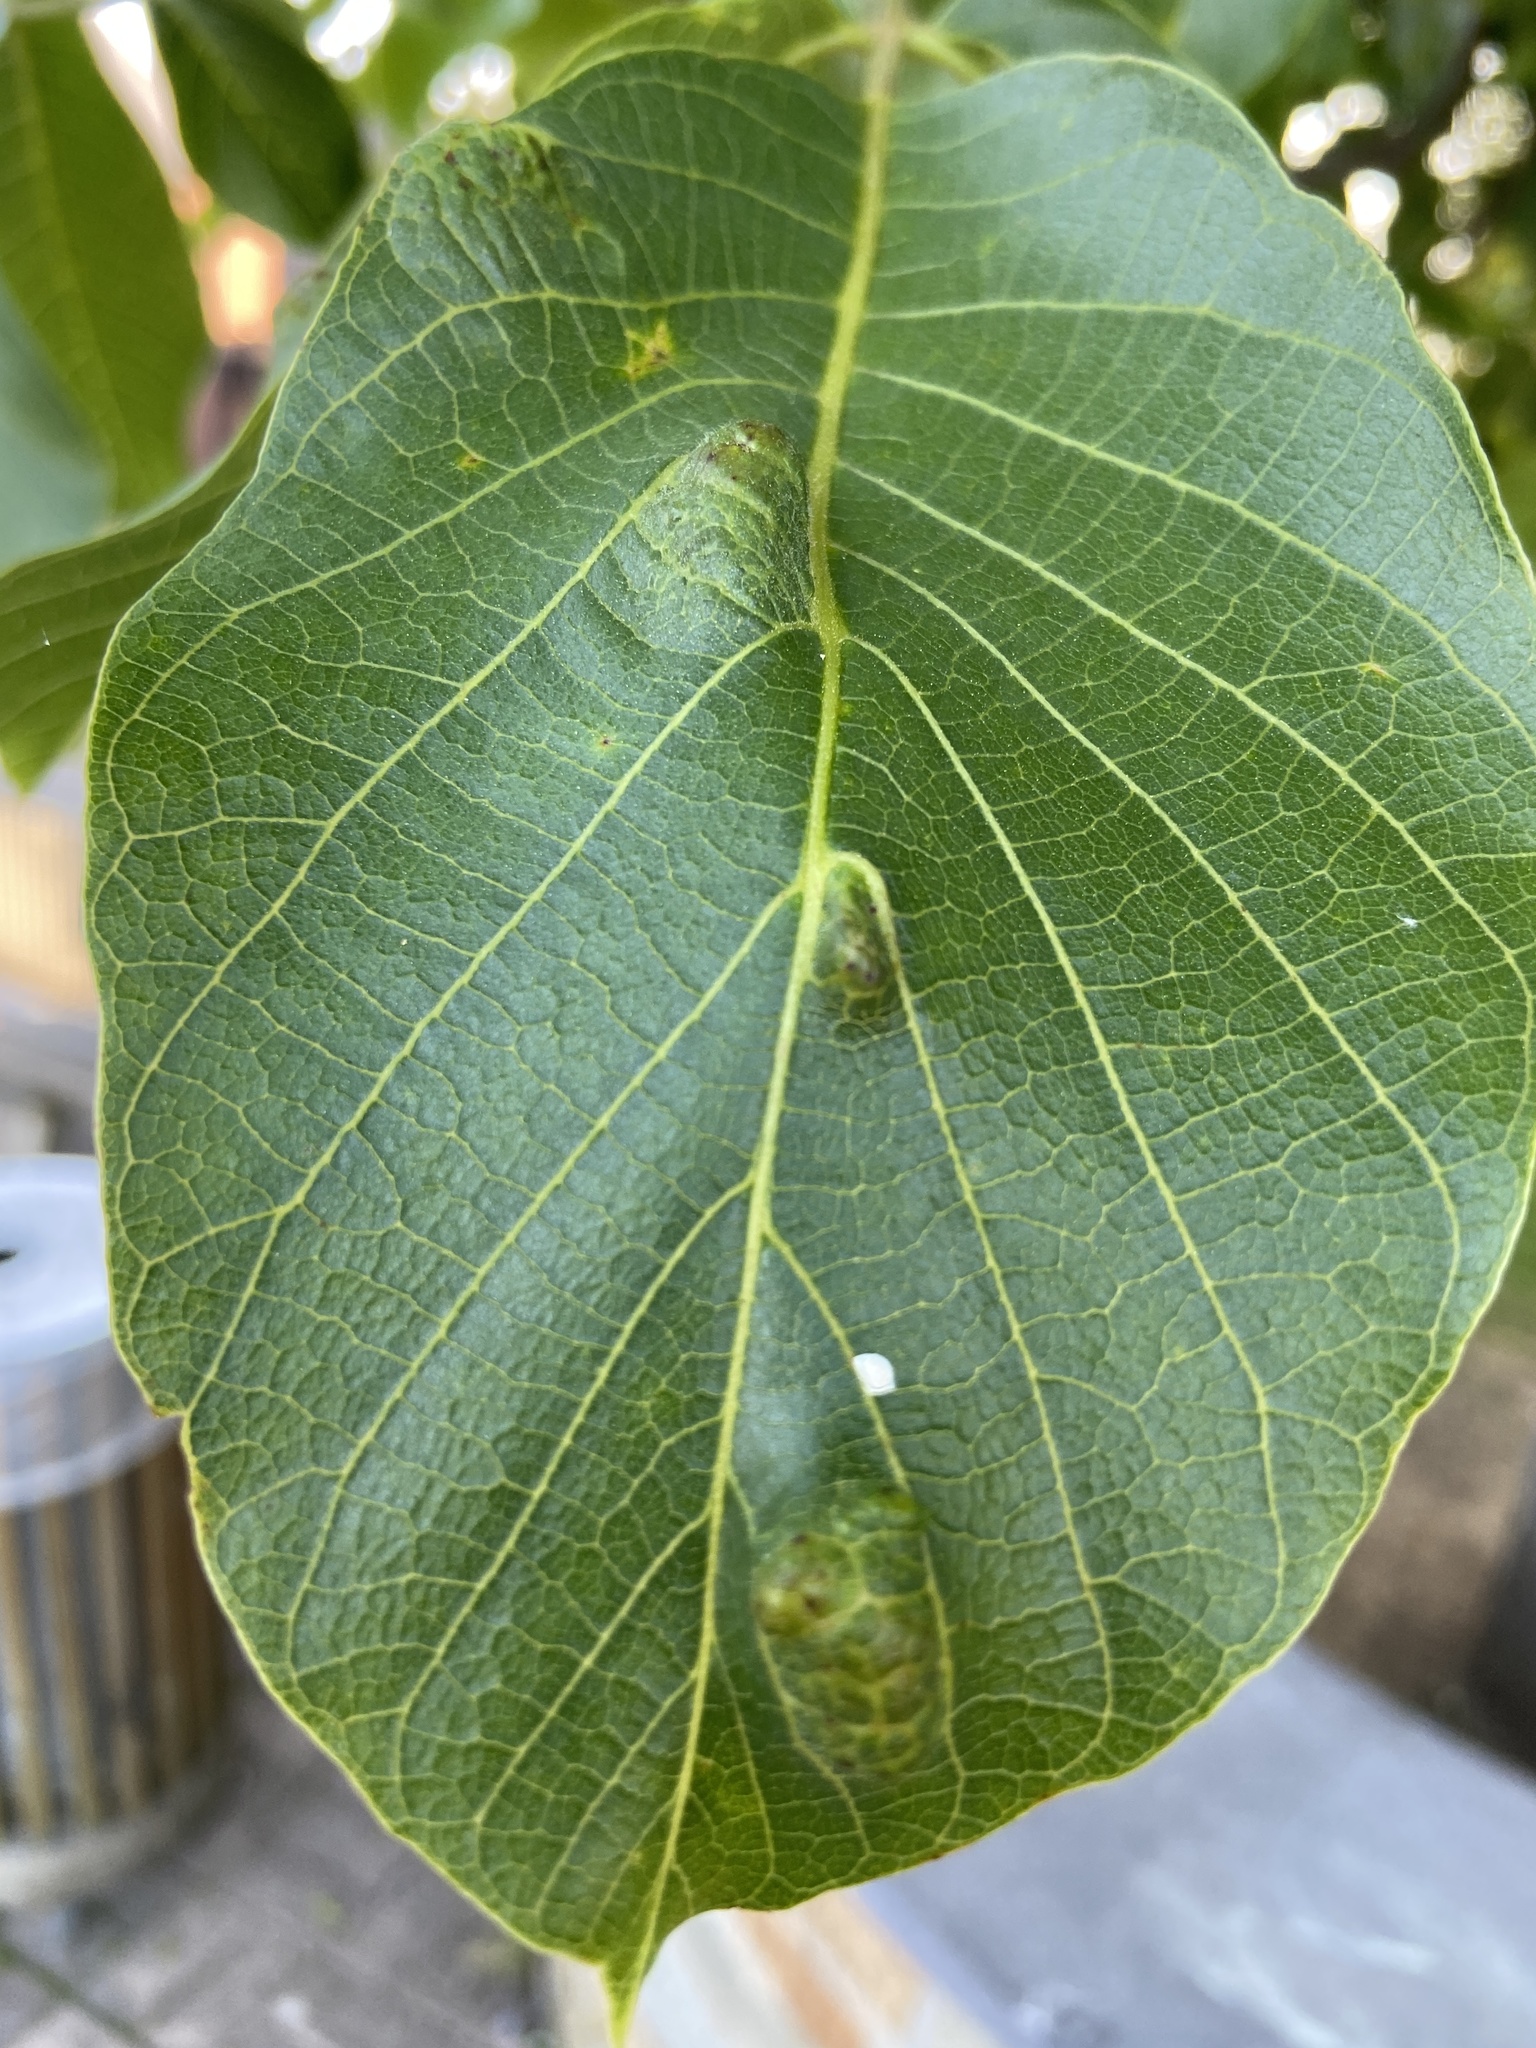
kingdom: Animalia
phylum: Arthropoda
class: Arachnida
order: Trombidiformes
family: Eriophyidae
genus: Aceria
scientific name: Aceria erinea
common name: Persian walnut erineum mite
